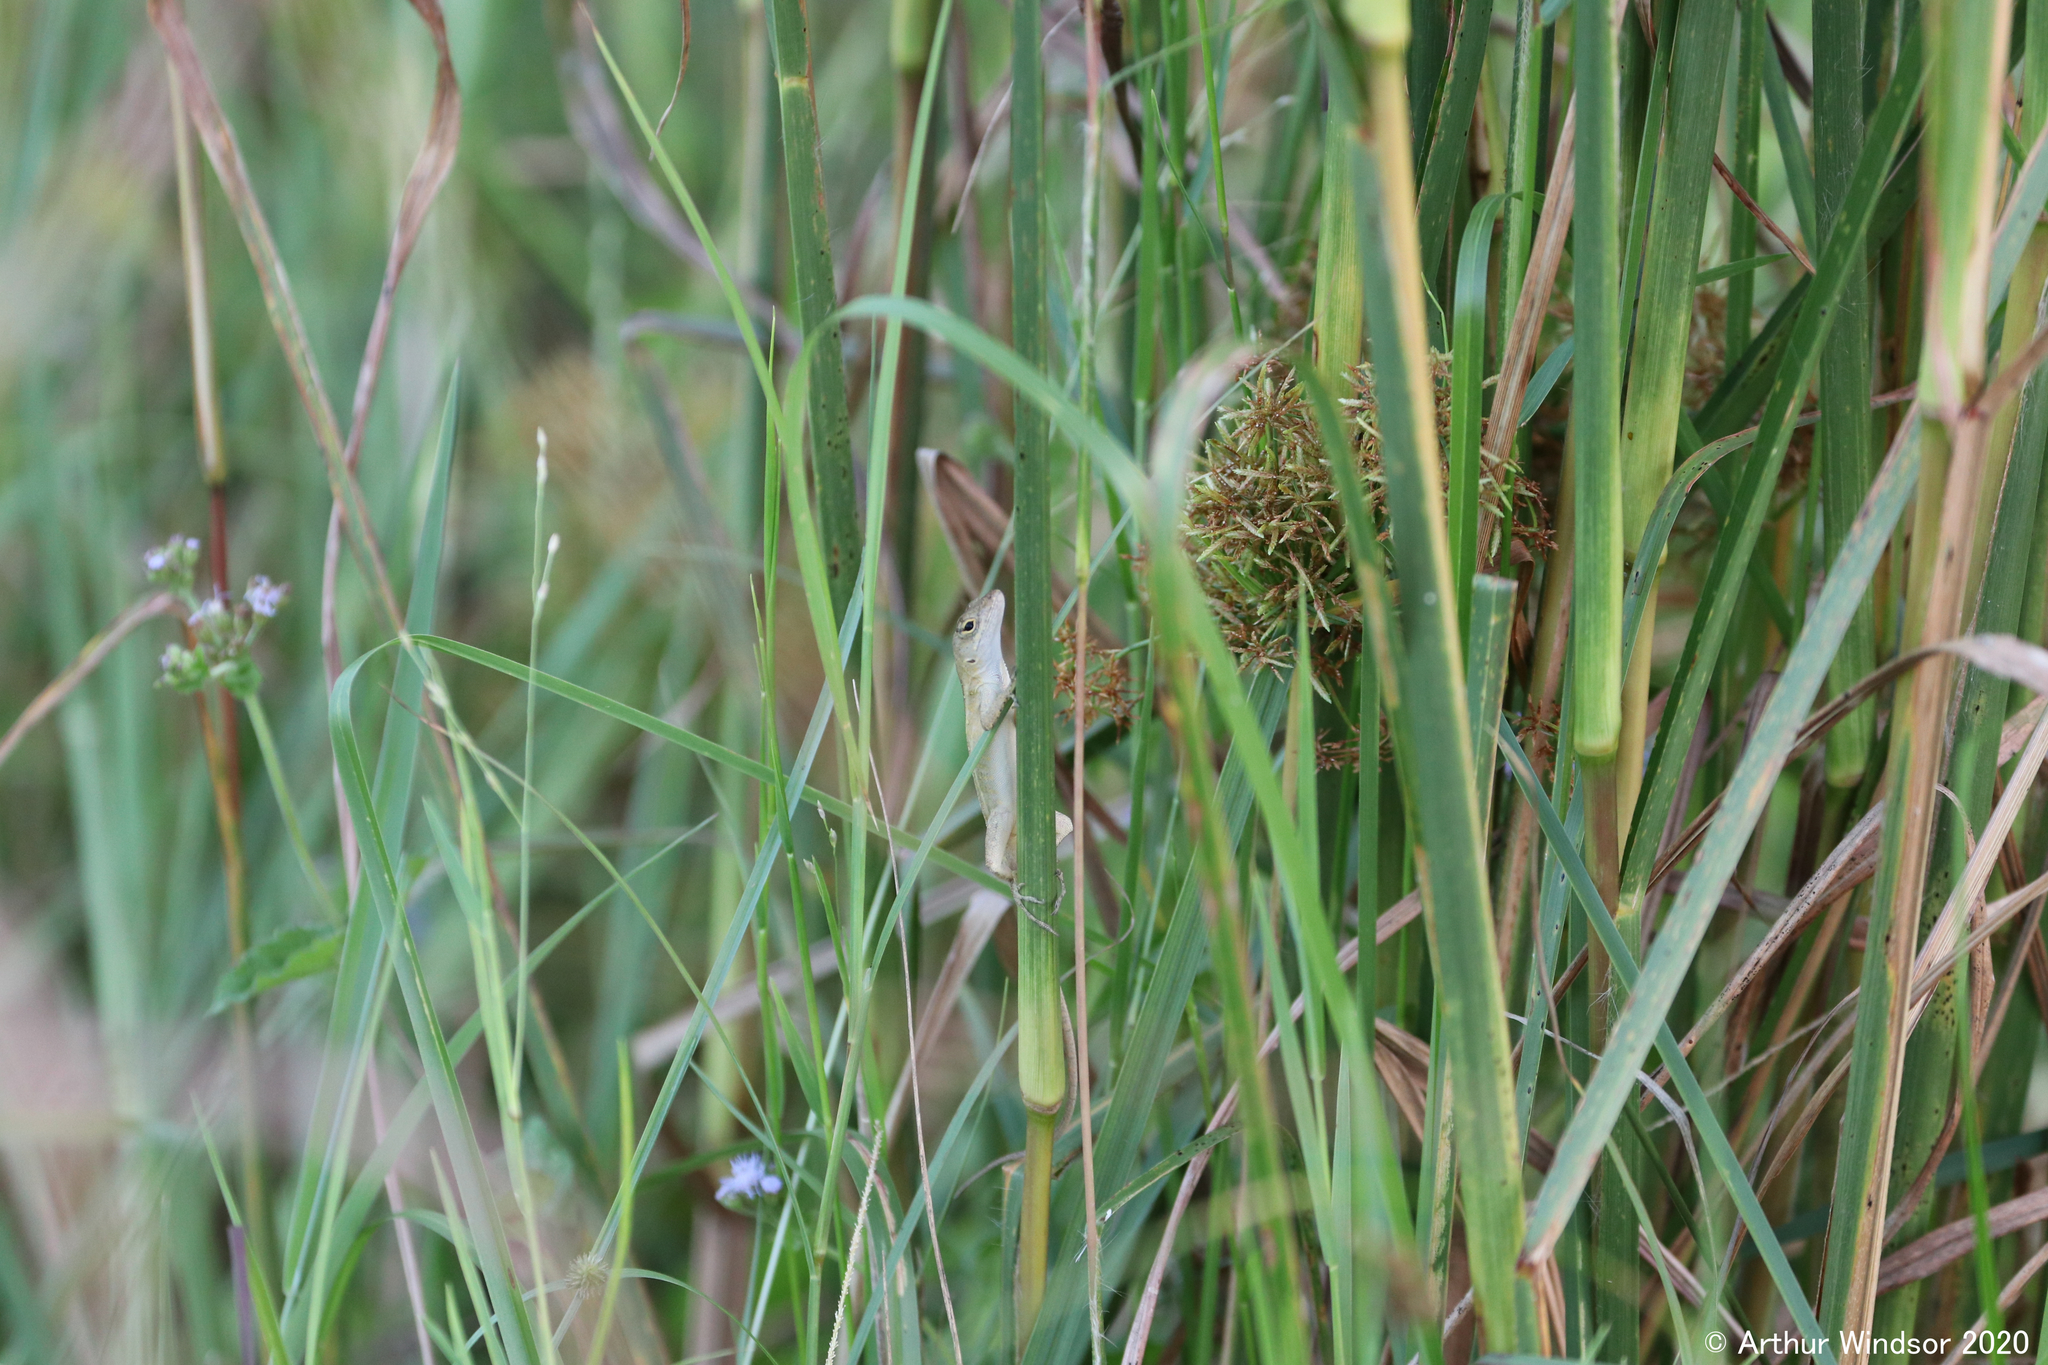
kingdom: Animalia
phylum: Chordata
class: Squamata
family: Dactyloidae
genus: Anolis
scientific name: Anolis sagrei
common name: Brown anole
